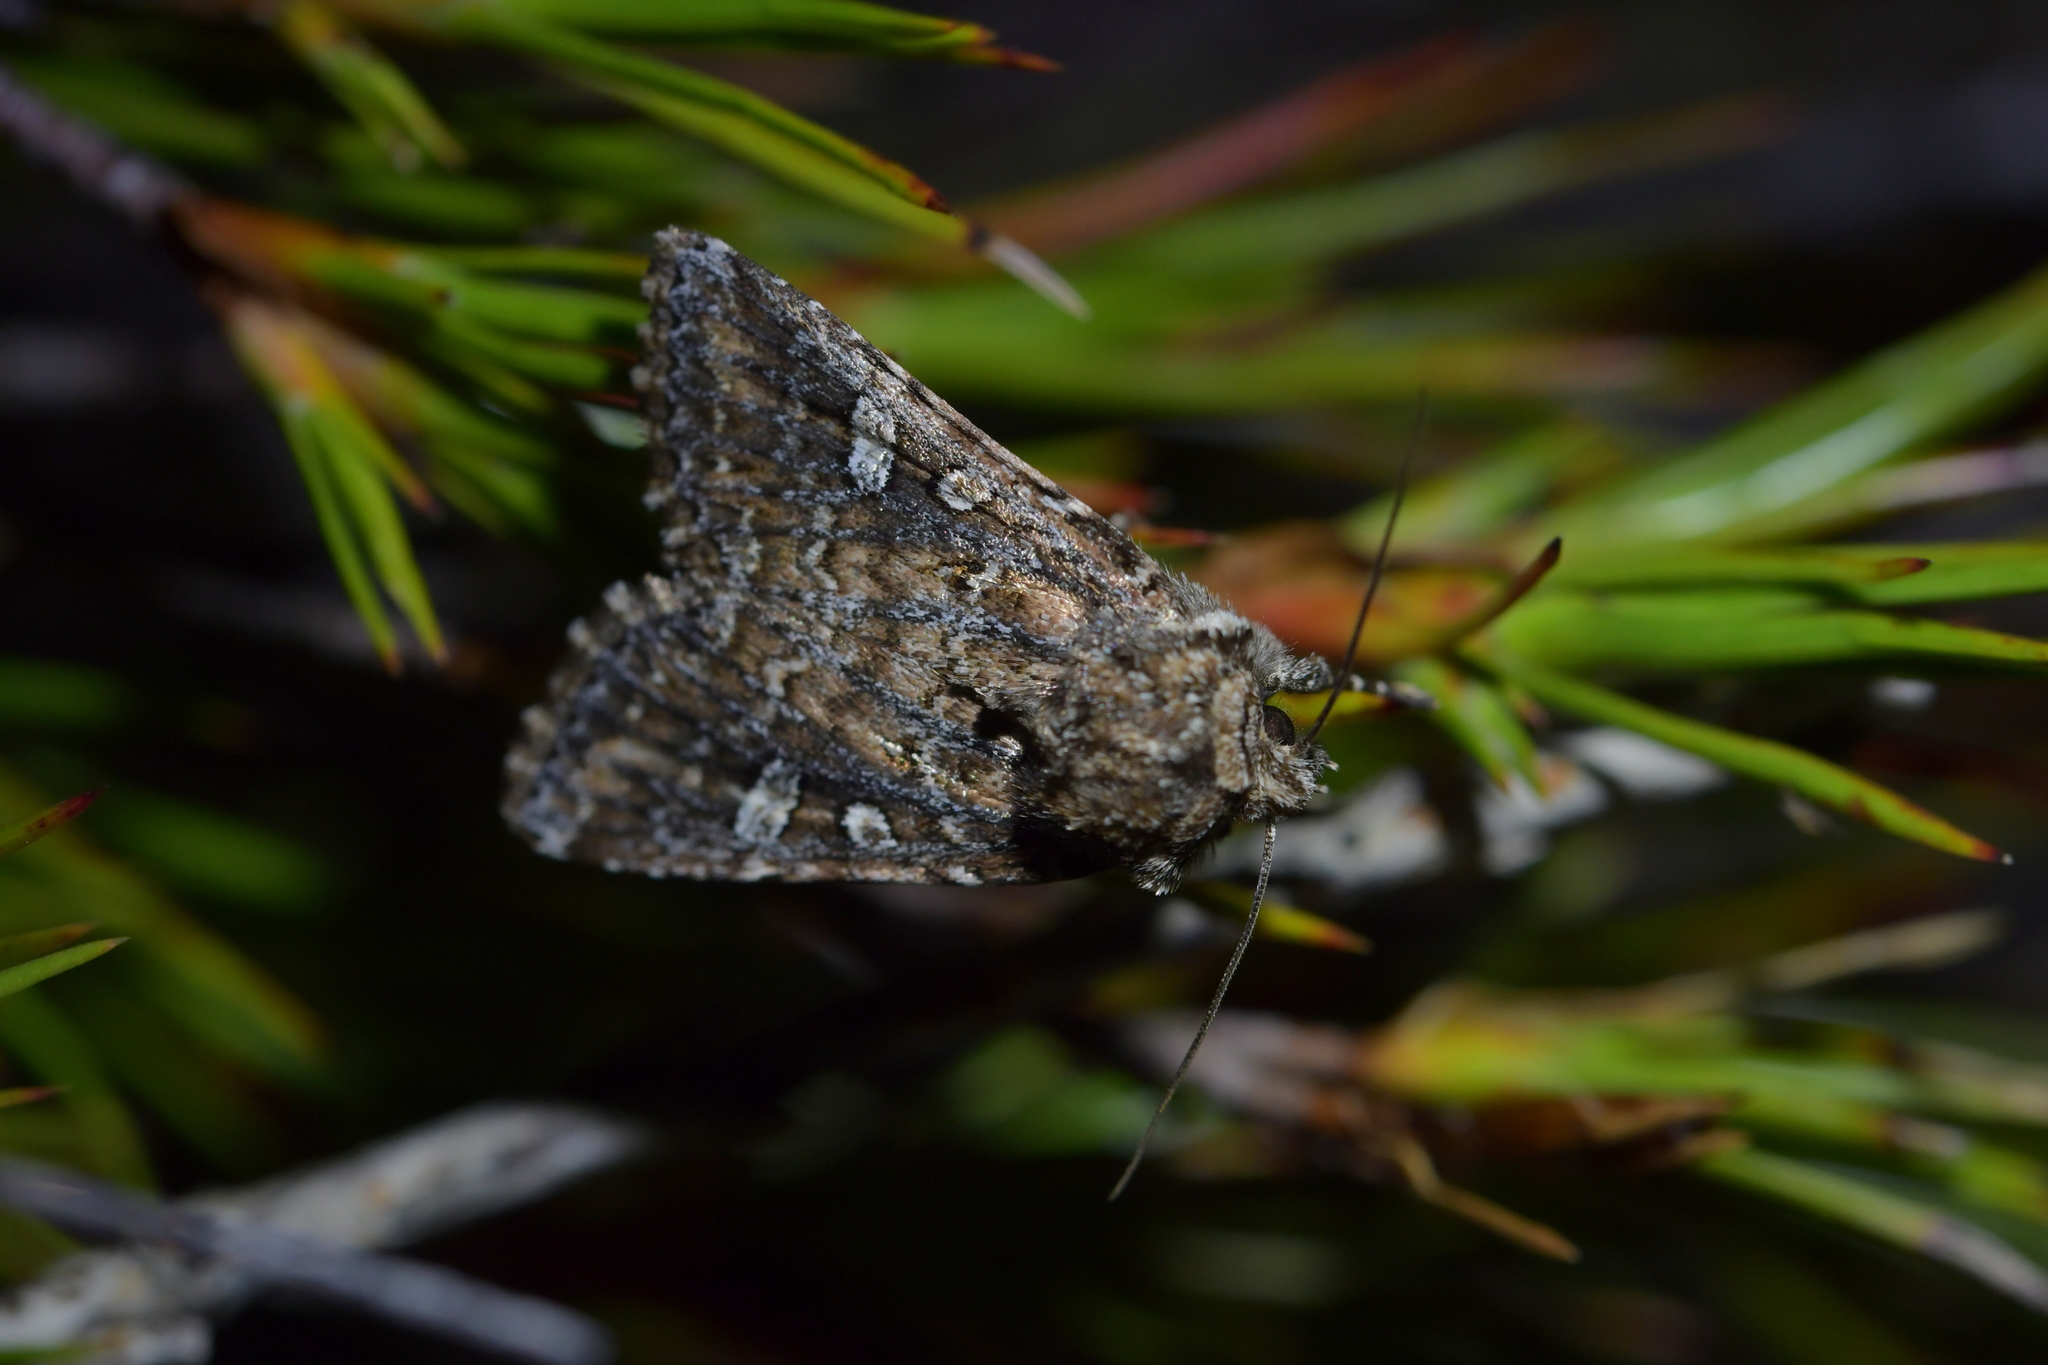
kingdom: Animalia
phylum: Arthropoda
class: Insecta
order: Lepidoptera
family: Noctuidae
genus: Ichneutica
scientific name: Ichneutica lithias
